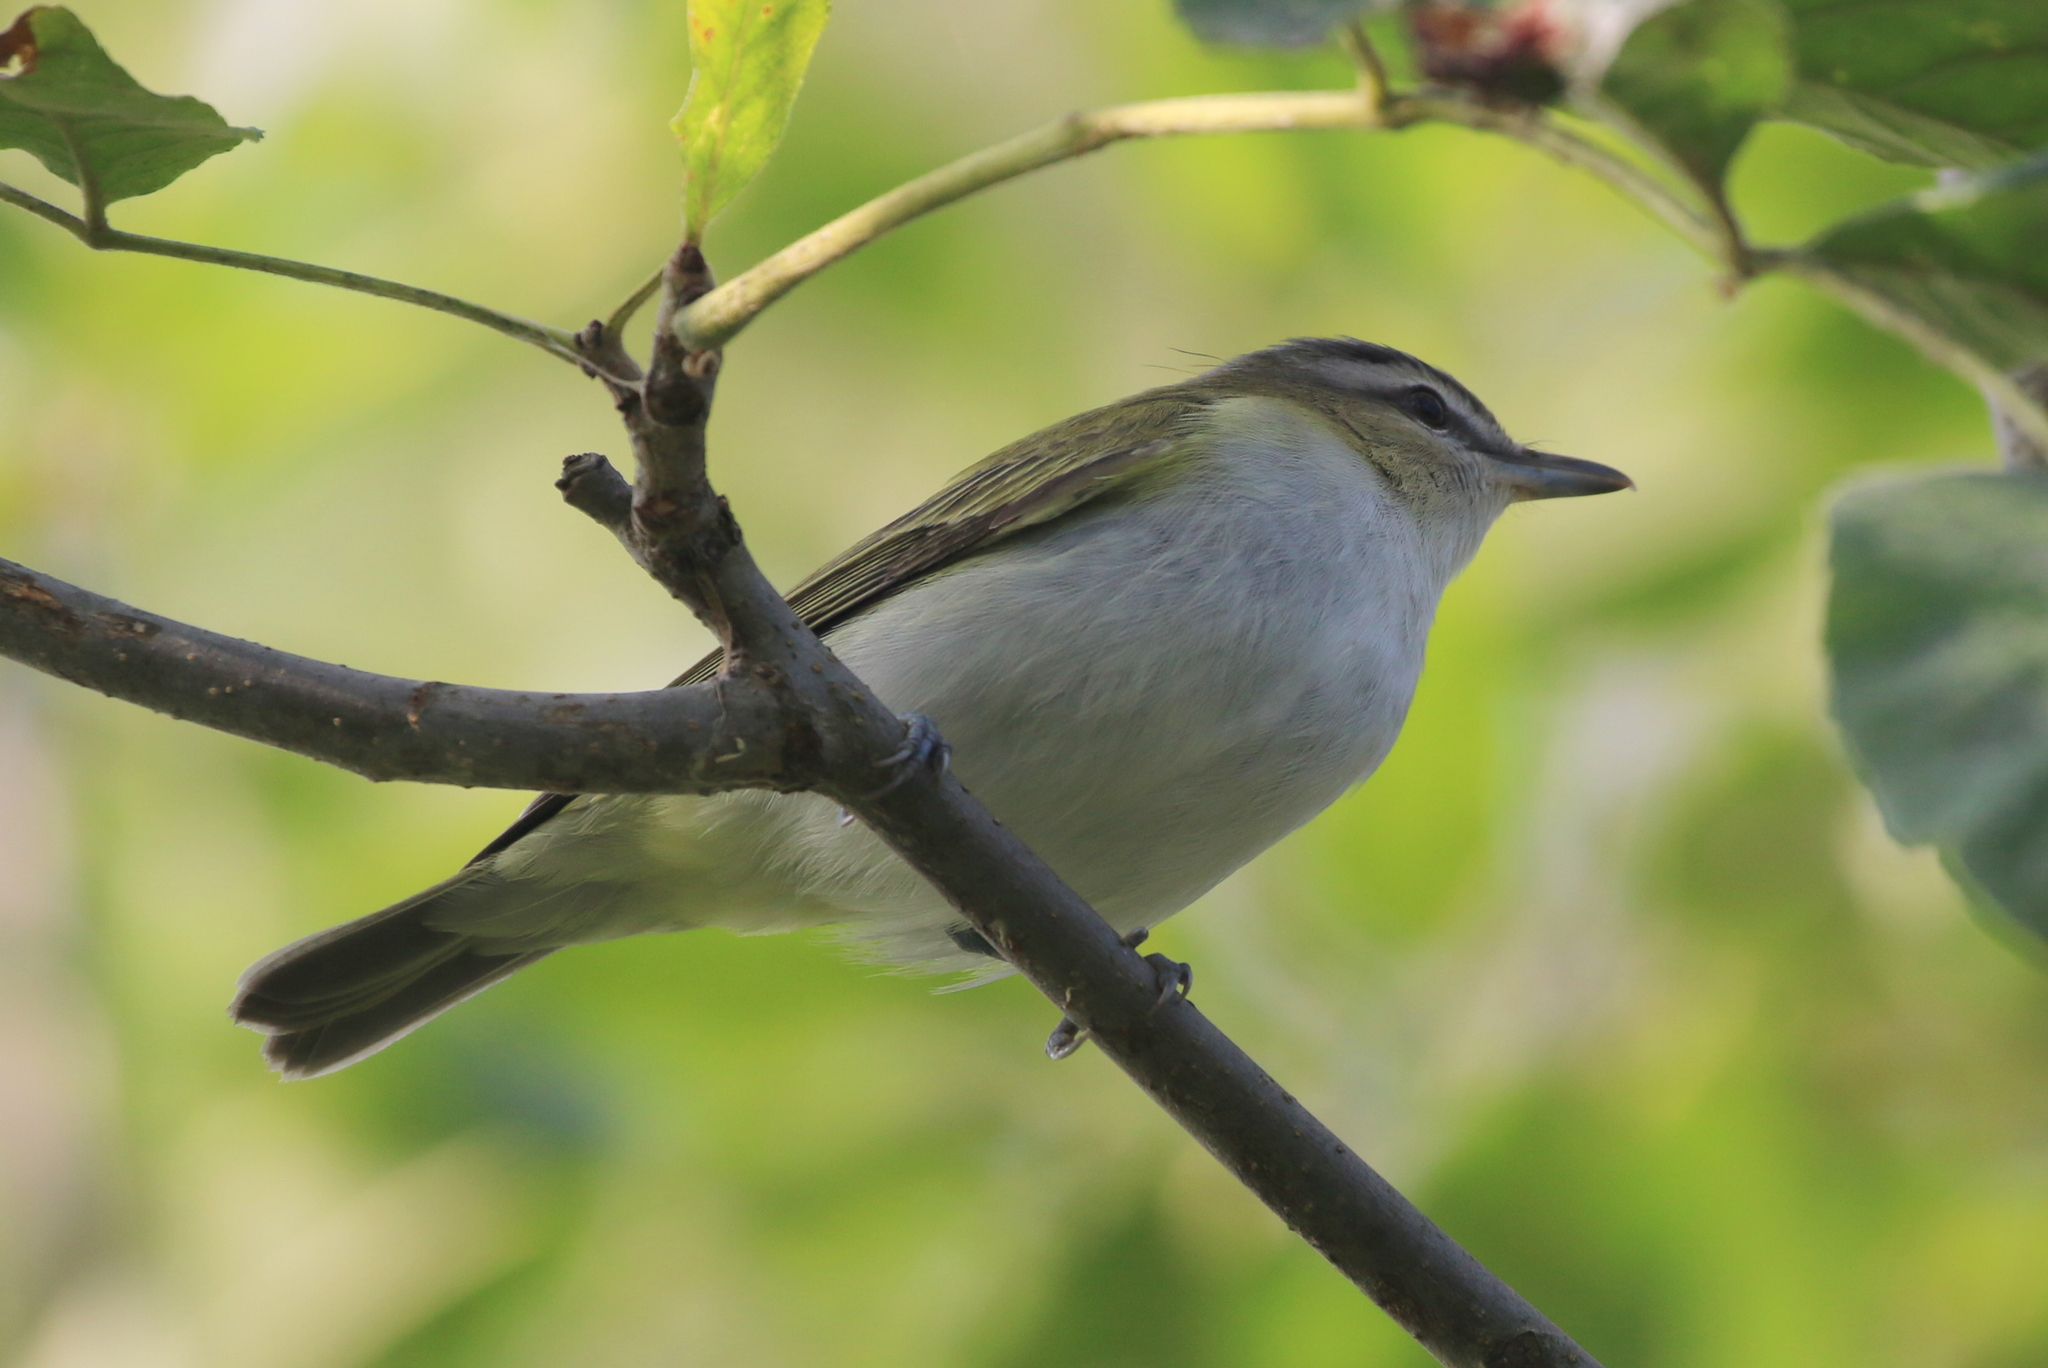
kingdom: Animalia
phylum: Chordata
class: Aves
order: Passeriformes
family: Vireonidae
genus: Vireo
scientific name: Vireo olivaceus
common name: Red-eyed vireo
